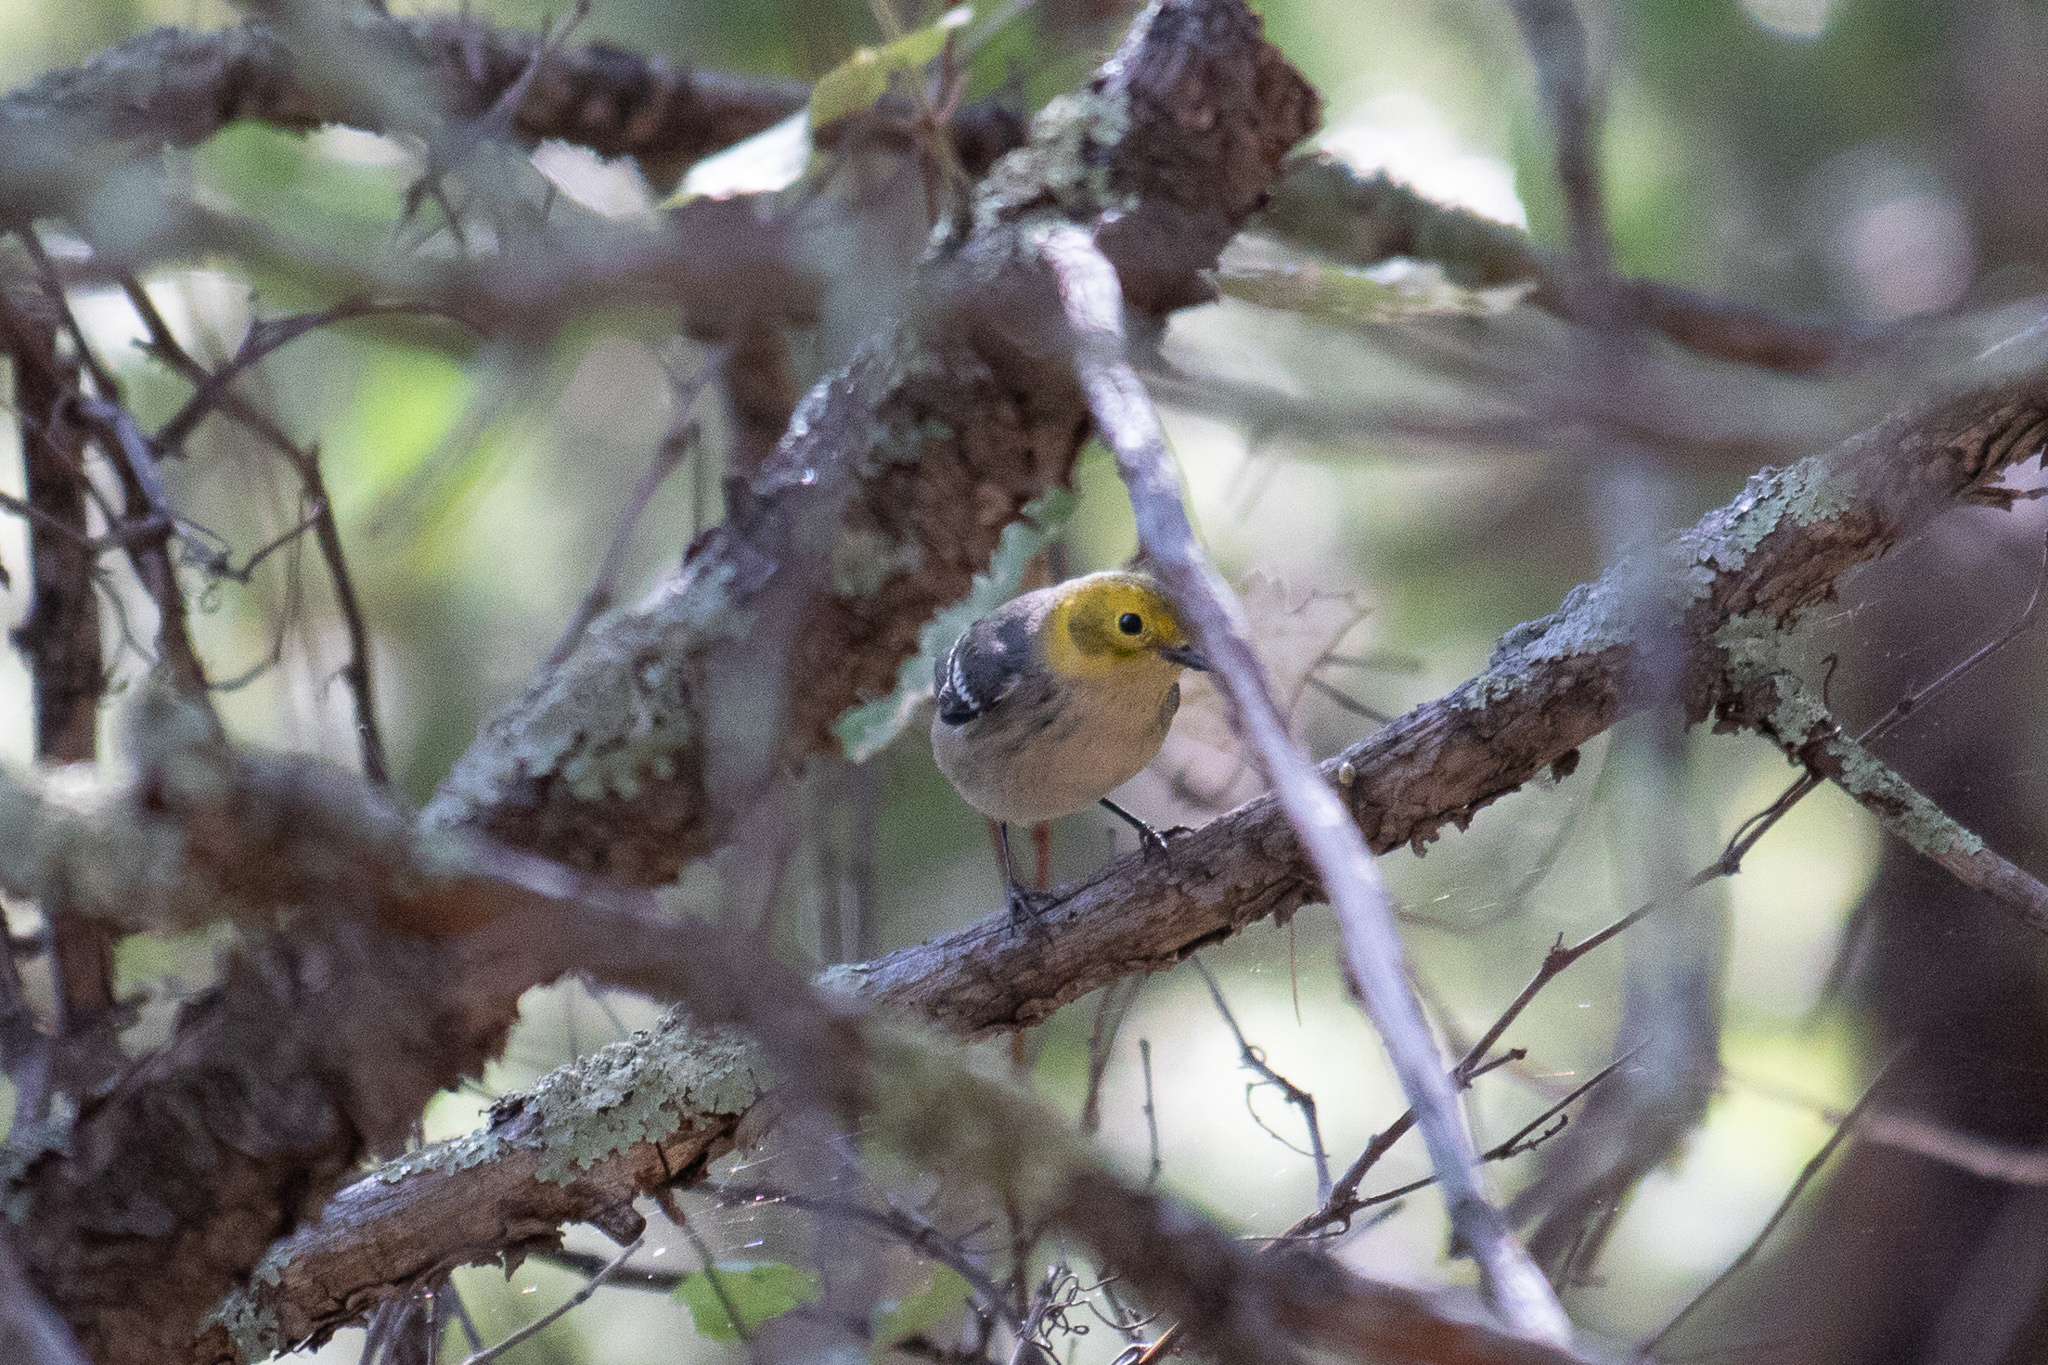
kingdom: Animalia
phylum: Chordata
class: Aves
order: Passeriformes
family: Parulidae
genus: Setophaga
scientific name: Setophaga occidentalis
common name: Hermit warbler
